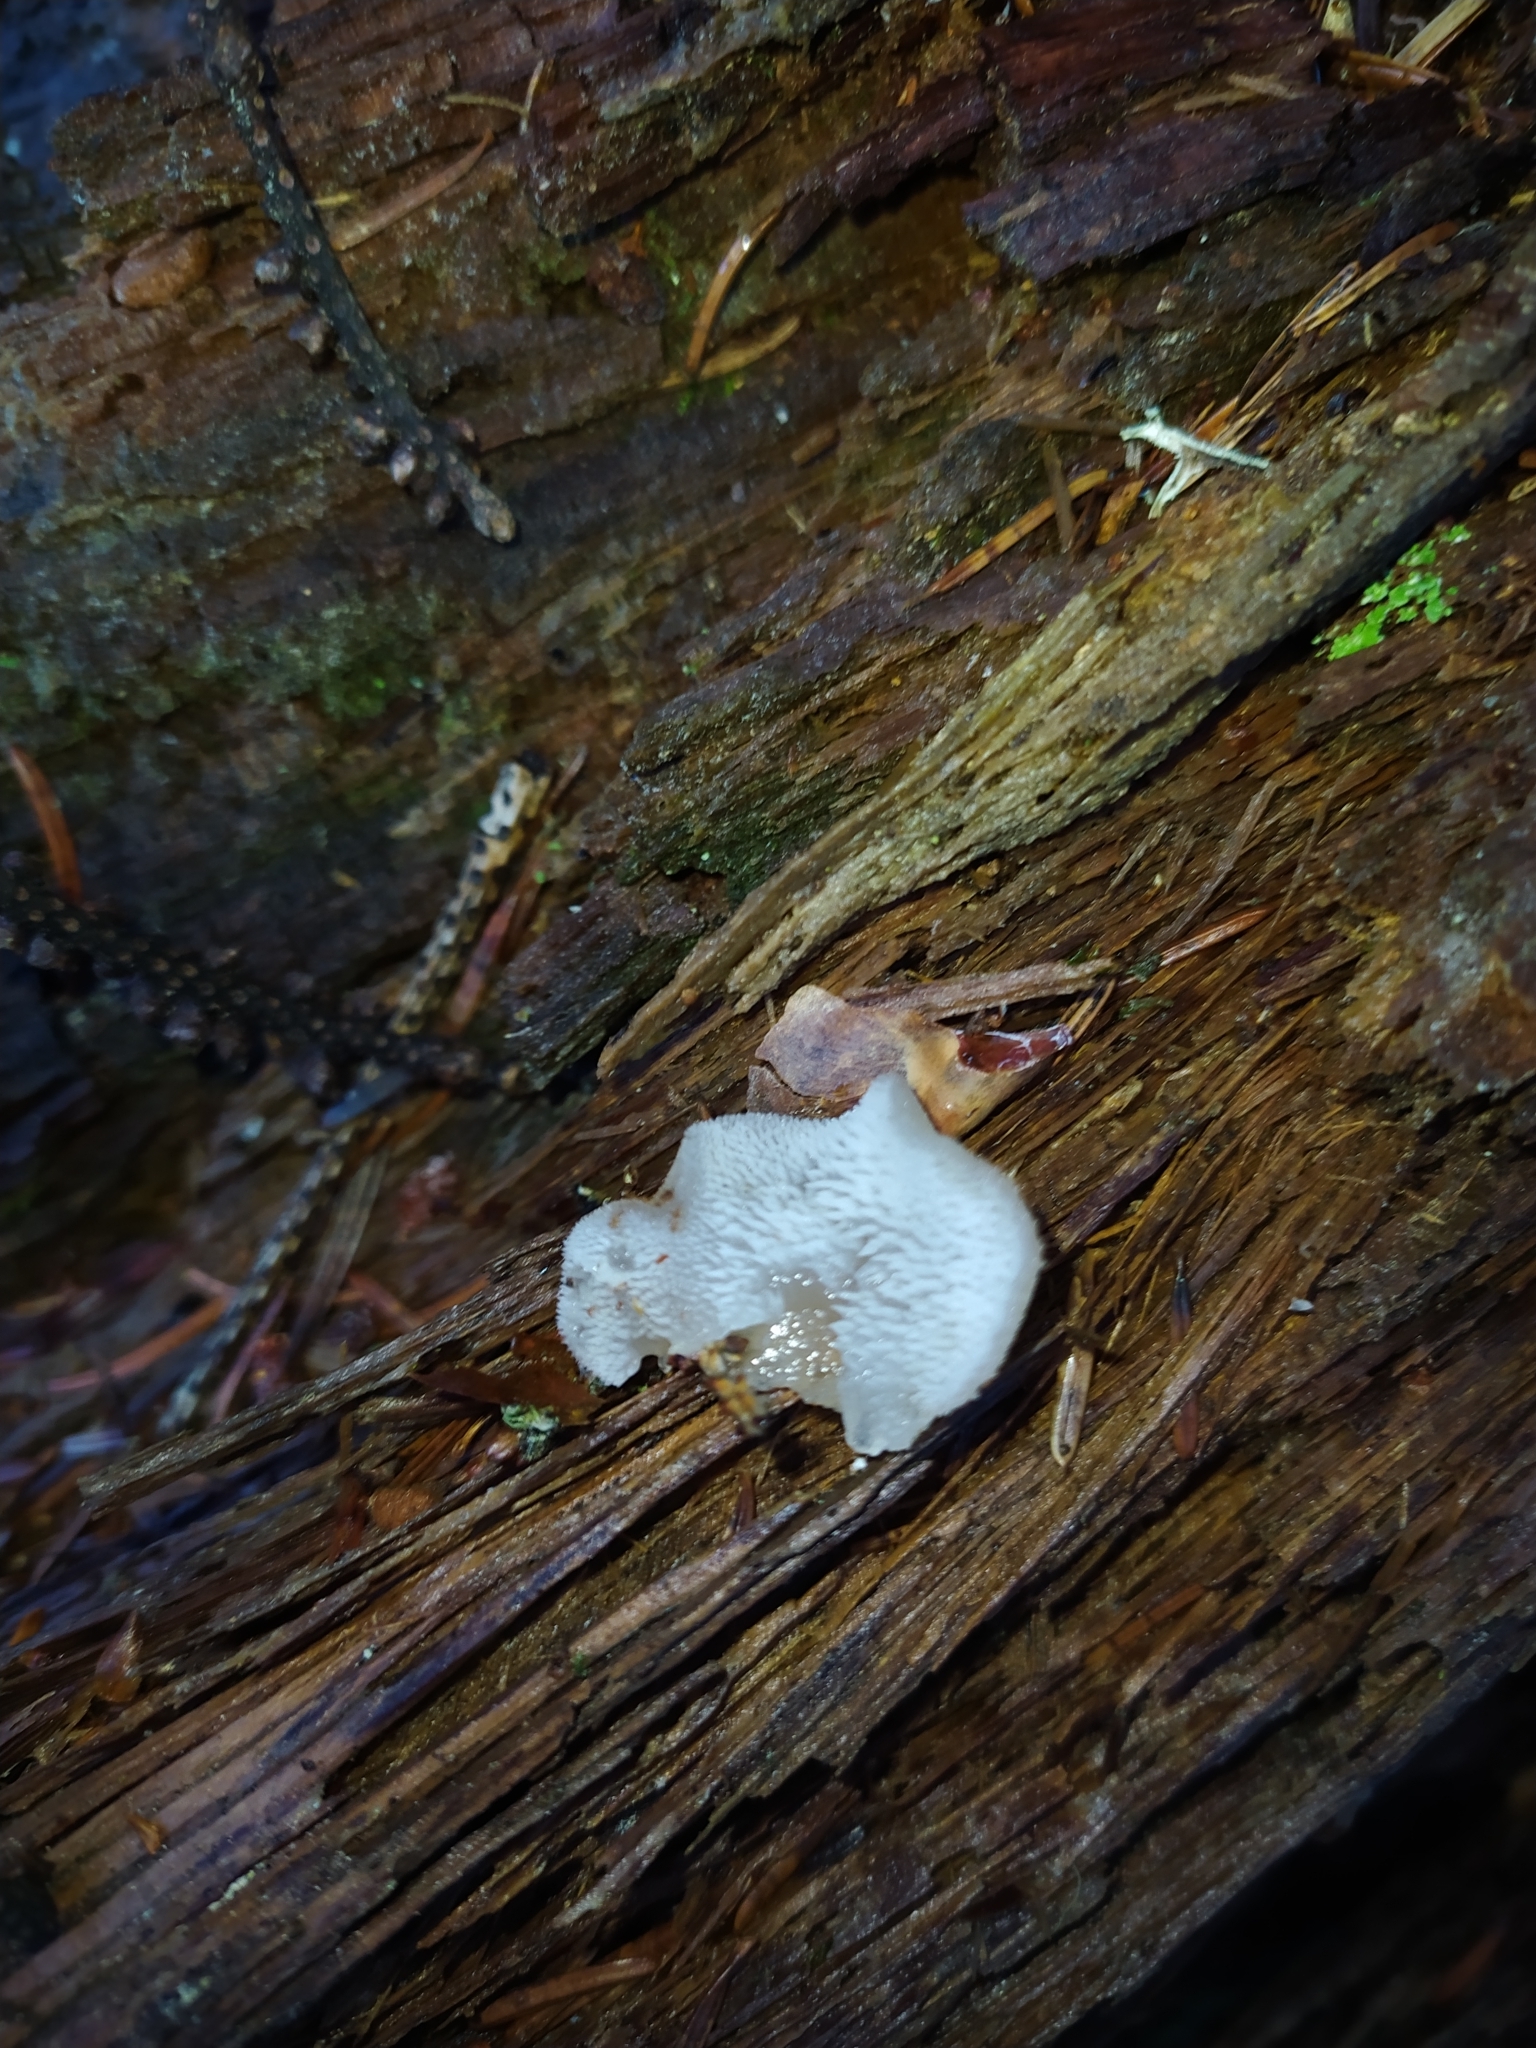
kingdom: Fungi
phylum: Basidiomycota
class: Agaricomycetes
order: Auriculariales
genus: Pseudohydnum
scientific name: Pseudohydnum gelatinosum
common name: Jelly tongue
